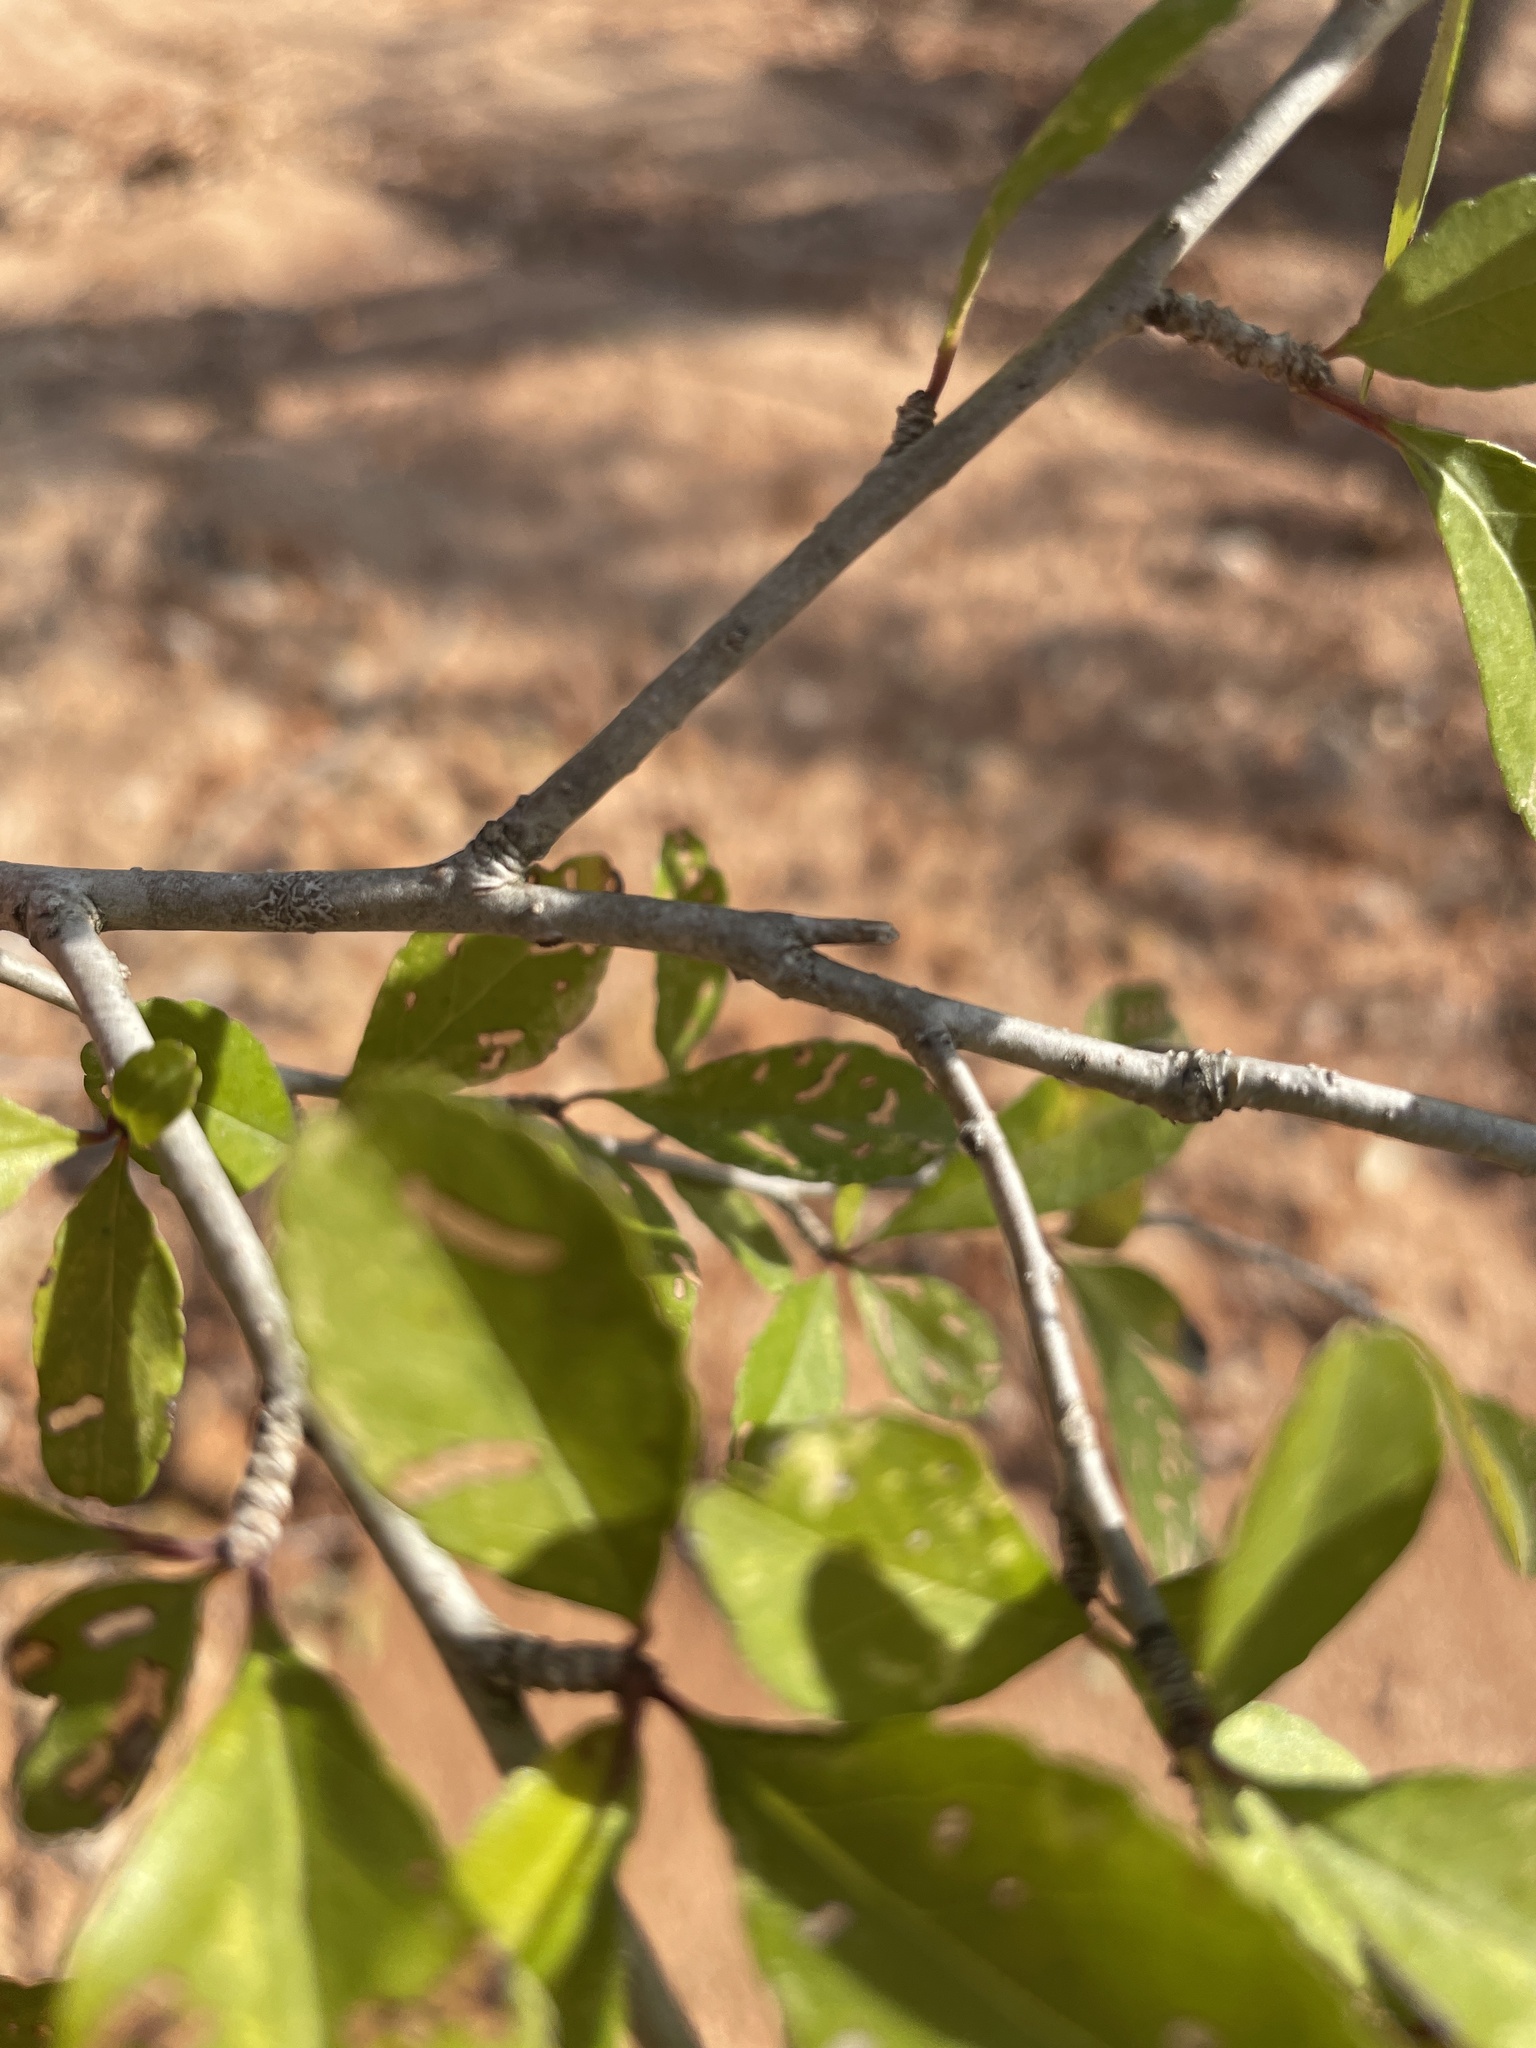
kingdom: Plantae
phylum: Tracheophyta
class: Magnoliopsida
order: Aquifoliales
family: Aquifoliaceae
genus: Ilex
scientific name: Ilex decidua
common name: Possum-haw
